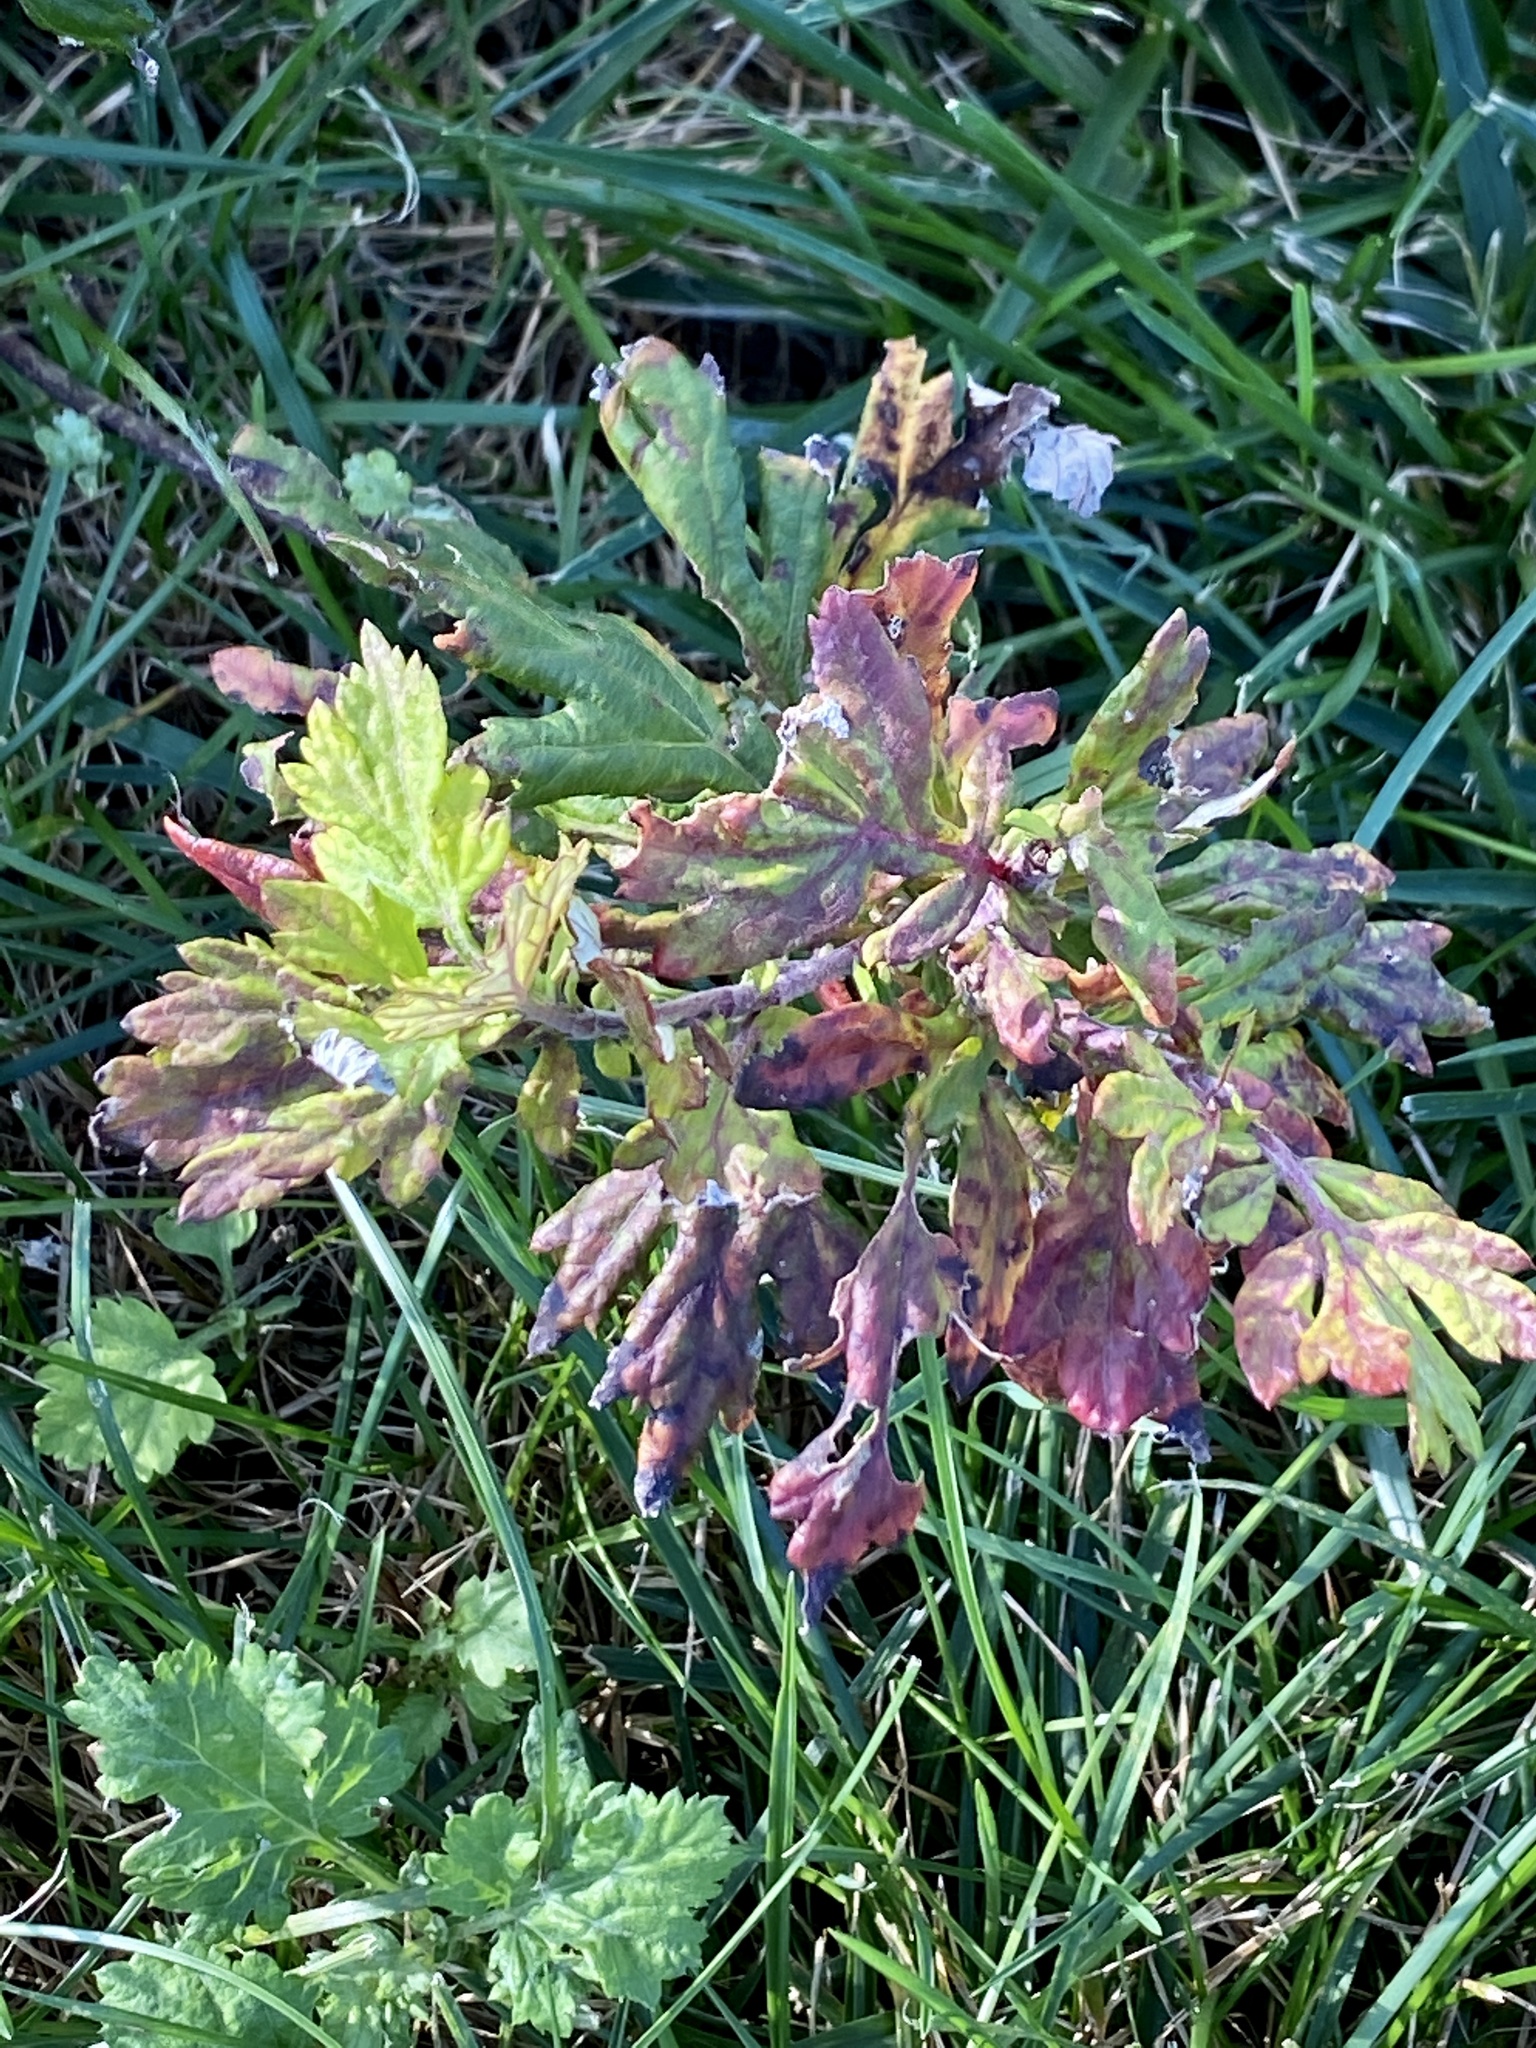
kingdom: Plantae
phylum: Tracheophyta
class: Magnoliopsida
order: Asterales
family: Asteraceae
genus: Artemisia
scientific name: Artemisia vulgaris
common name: Mugwort
